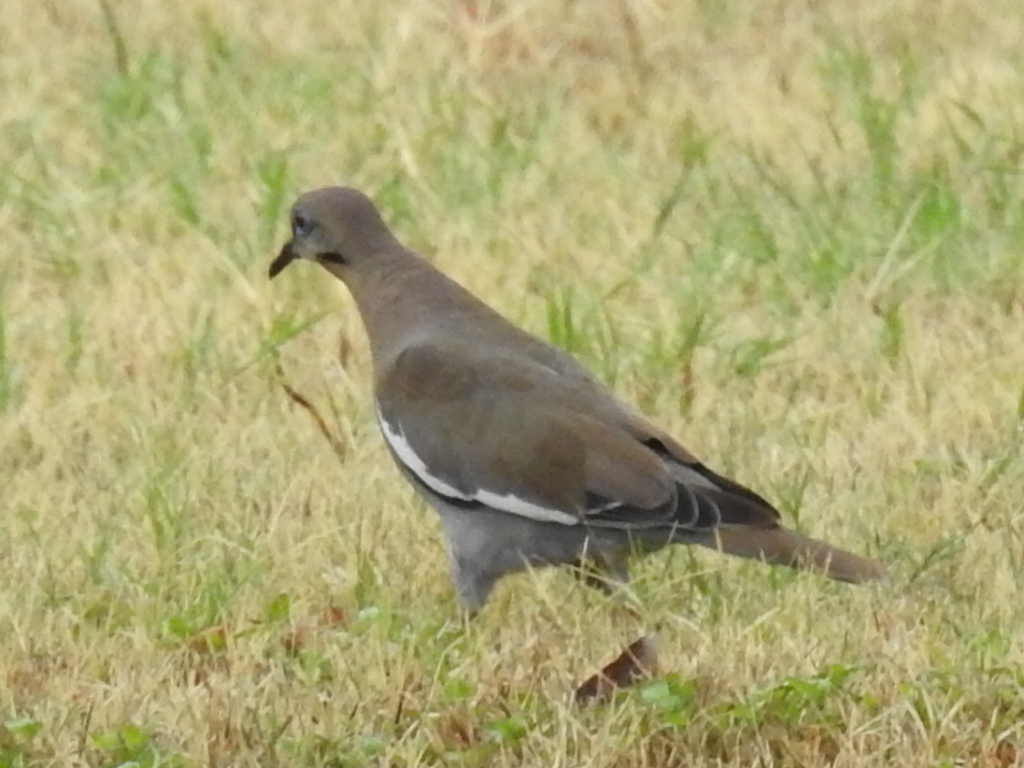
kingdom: Animalia
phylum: Chordata
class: Aves
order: Columbiformes
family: Columbidae
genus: Zenaida
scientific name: Zenaida asiatica
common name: White-winged dove
